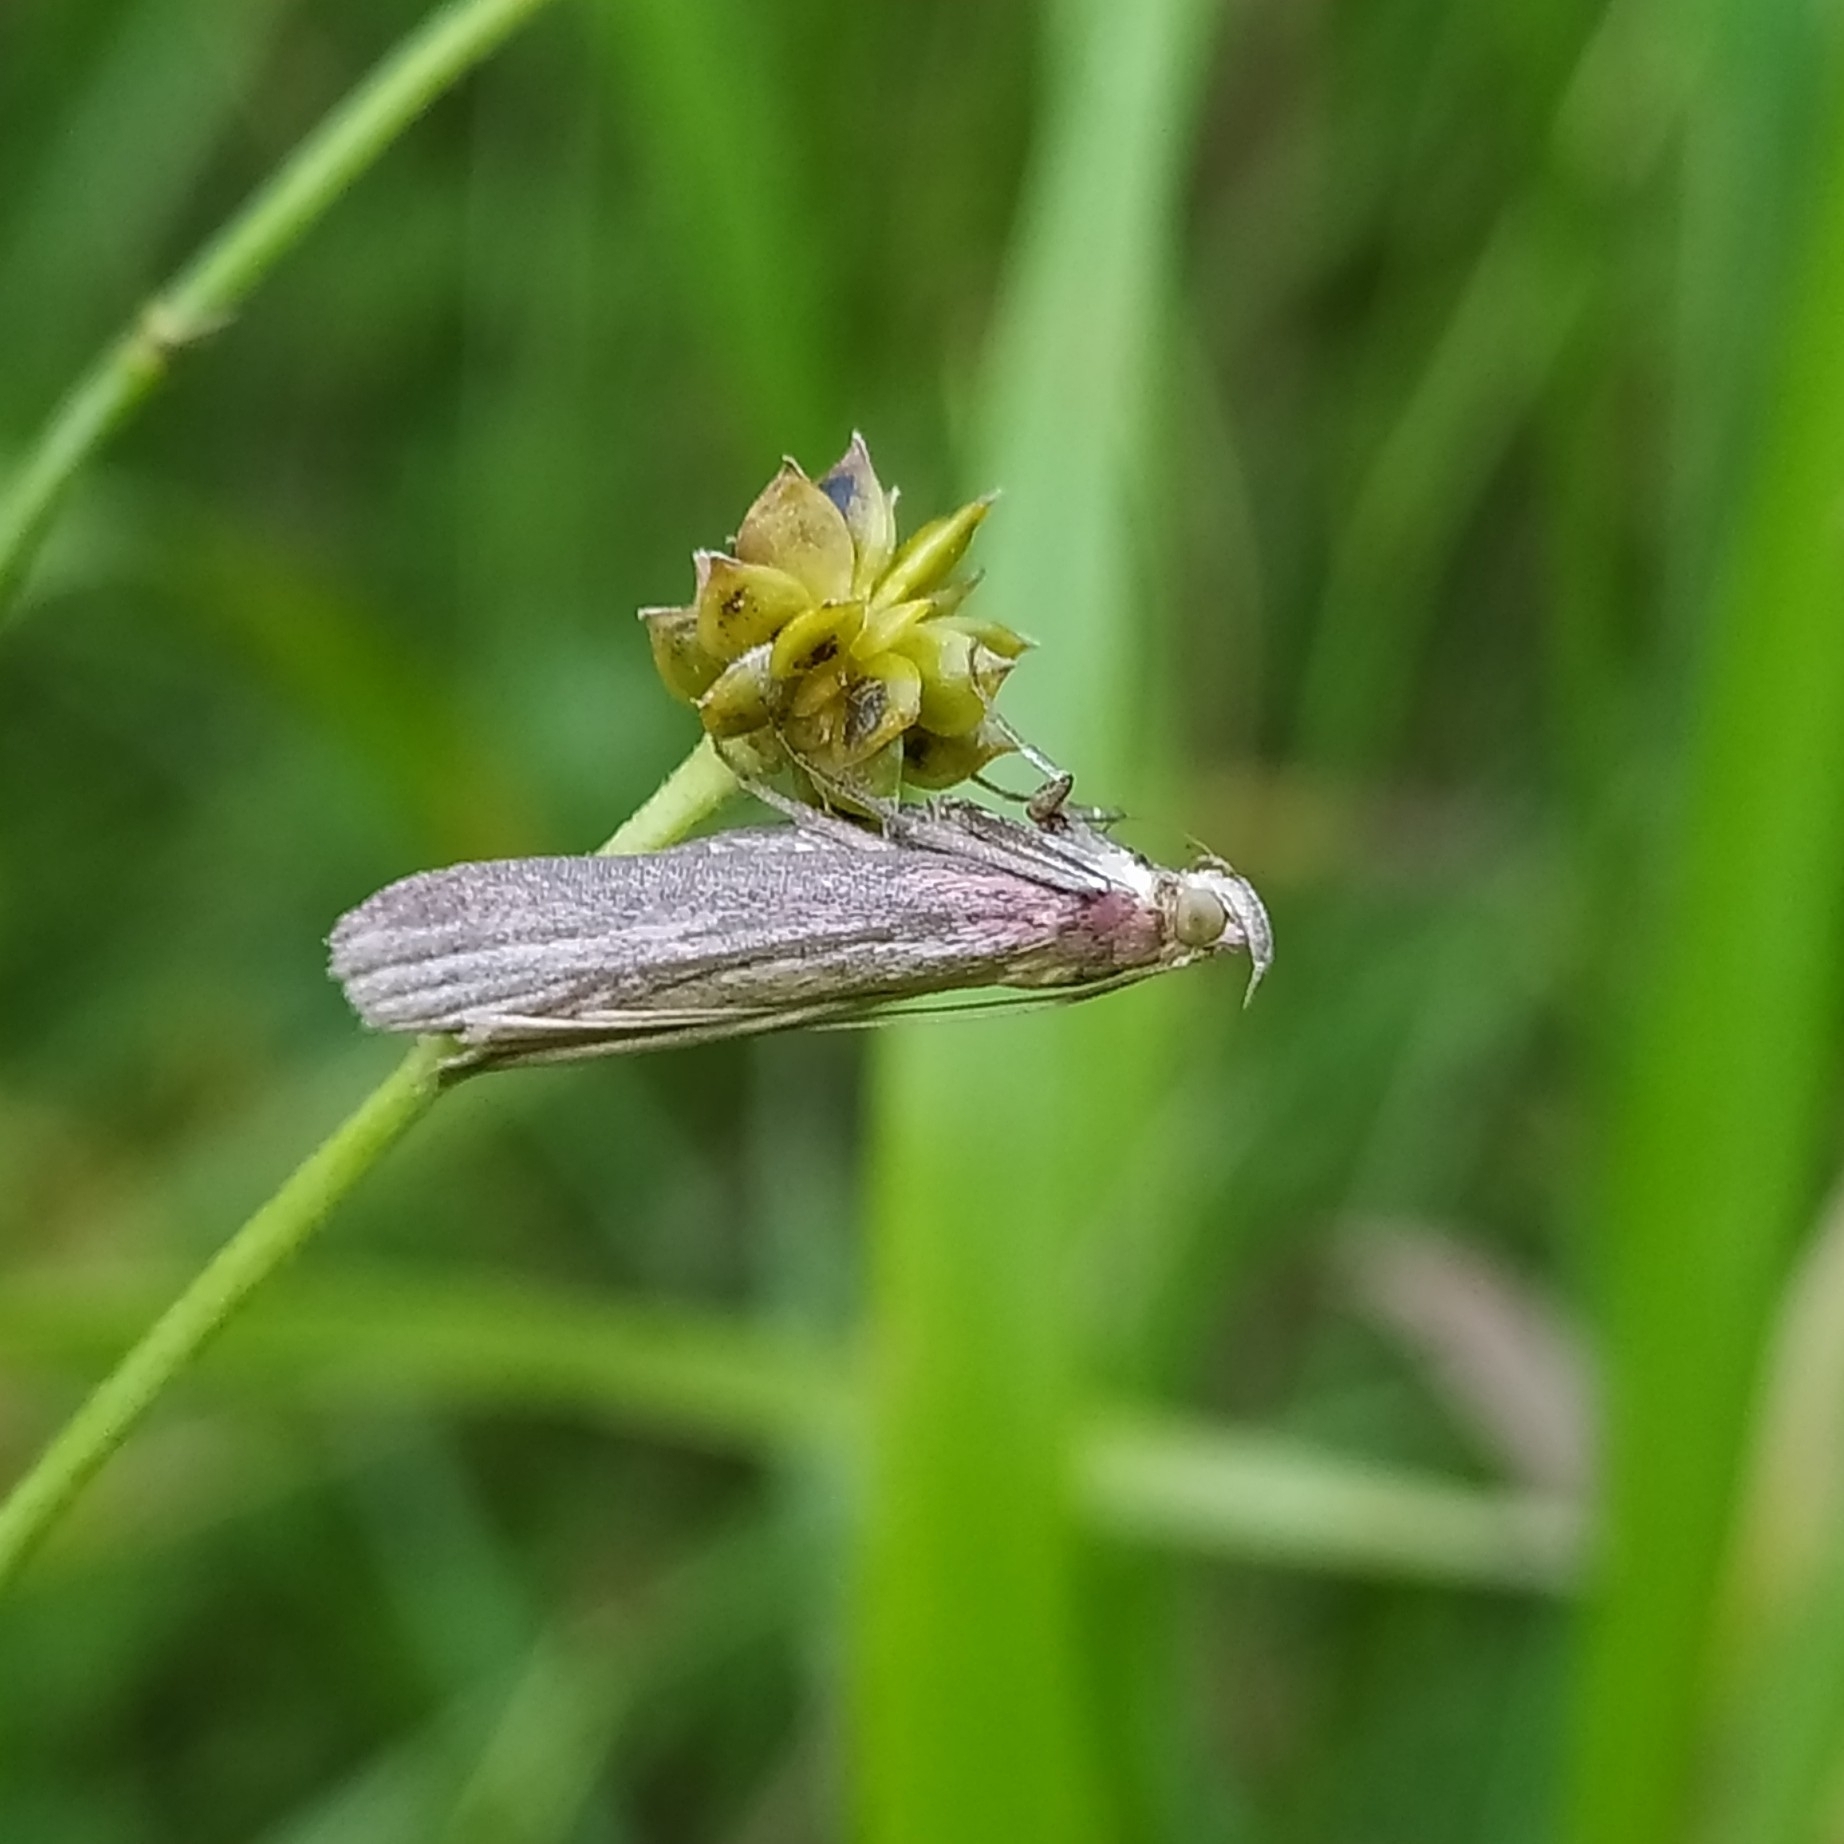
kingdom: Animalia
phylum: Arthropoda
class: Insecta
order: Lepidoptera
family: Pyralidae
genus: Oncocera
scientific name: Oncocera semirubella
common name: Rosy-striped knot-horn
